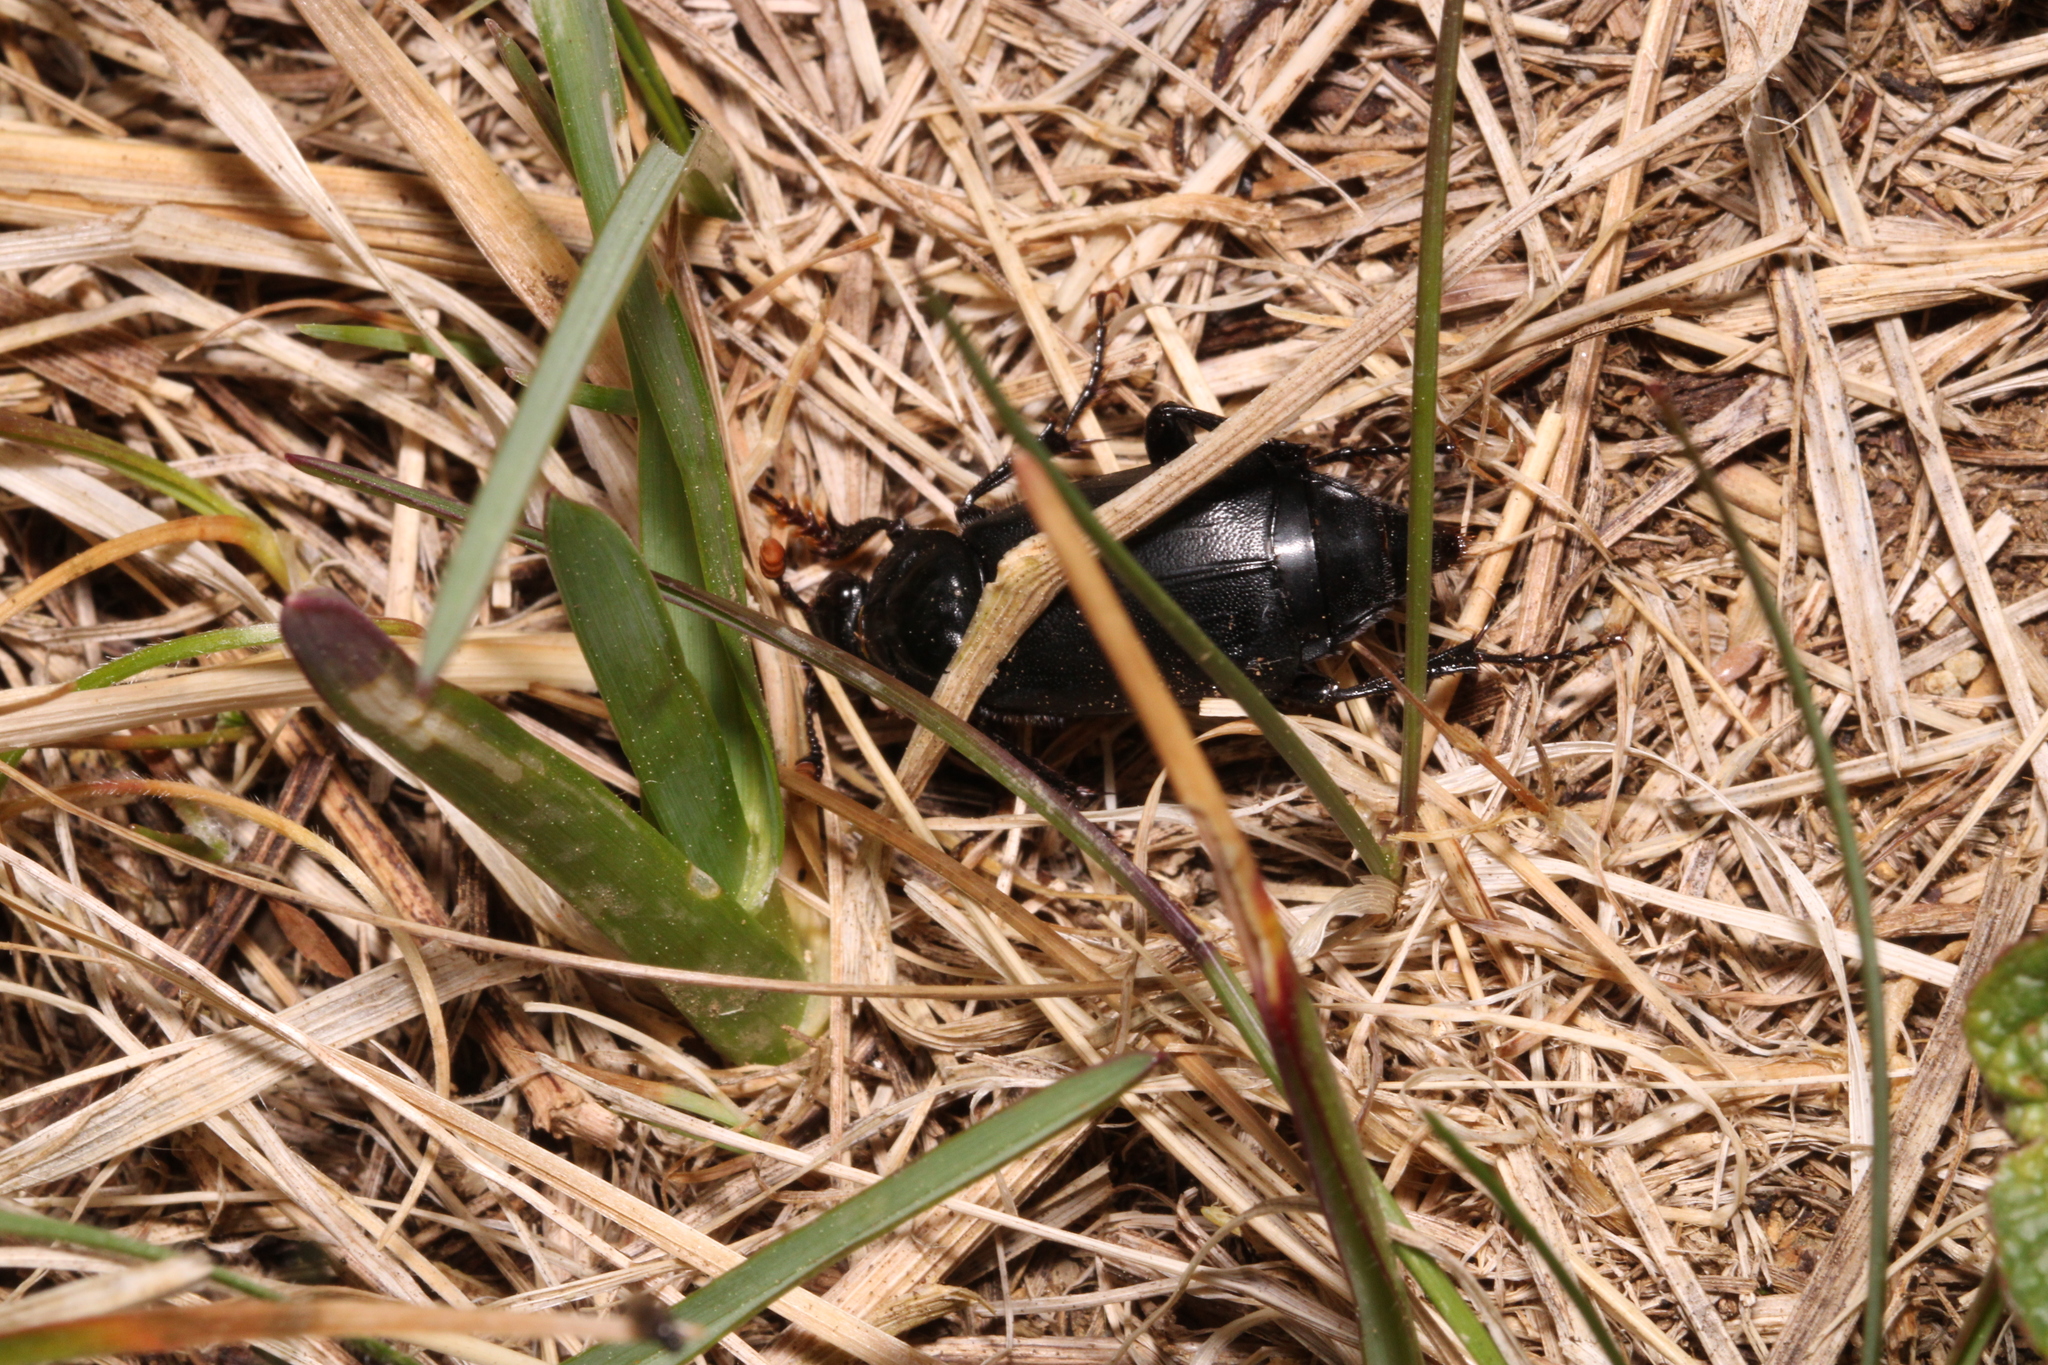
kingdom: Animalia
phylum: Arthropoda
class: Insecta
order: Coleoptera
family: Staphylinidae
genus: Nicrophorus
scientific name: Nicrophorus humator
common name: Black sexton beetle
